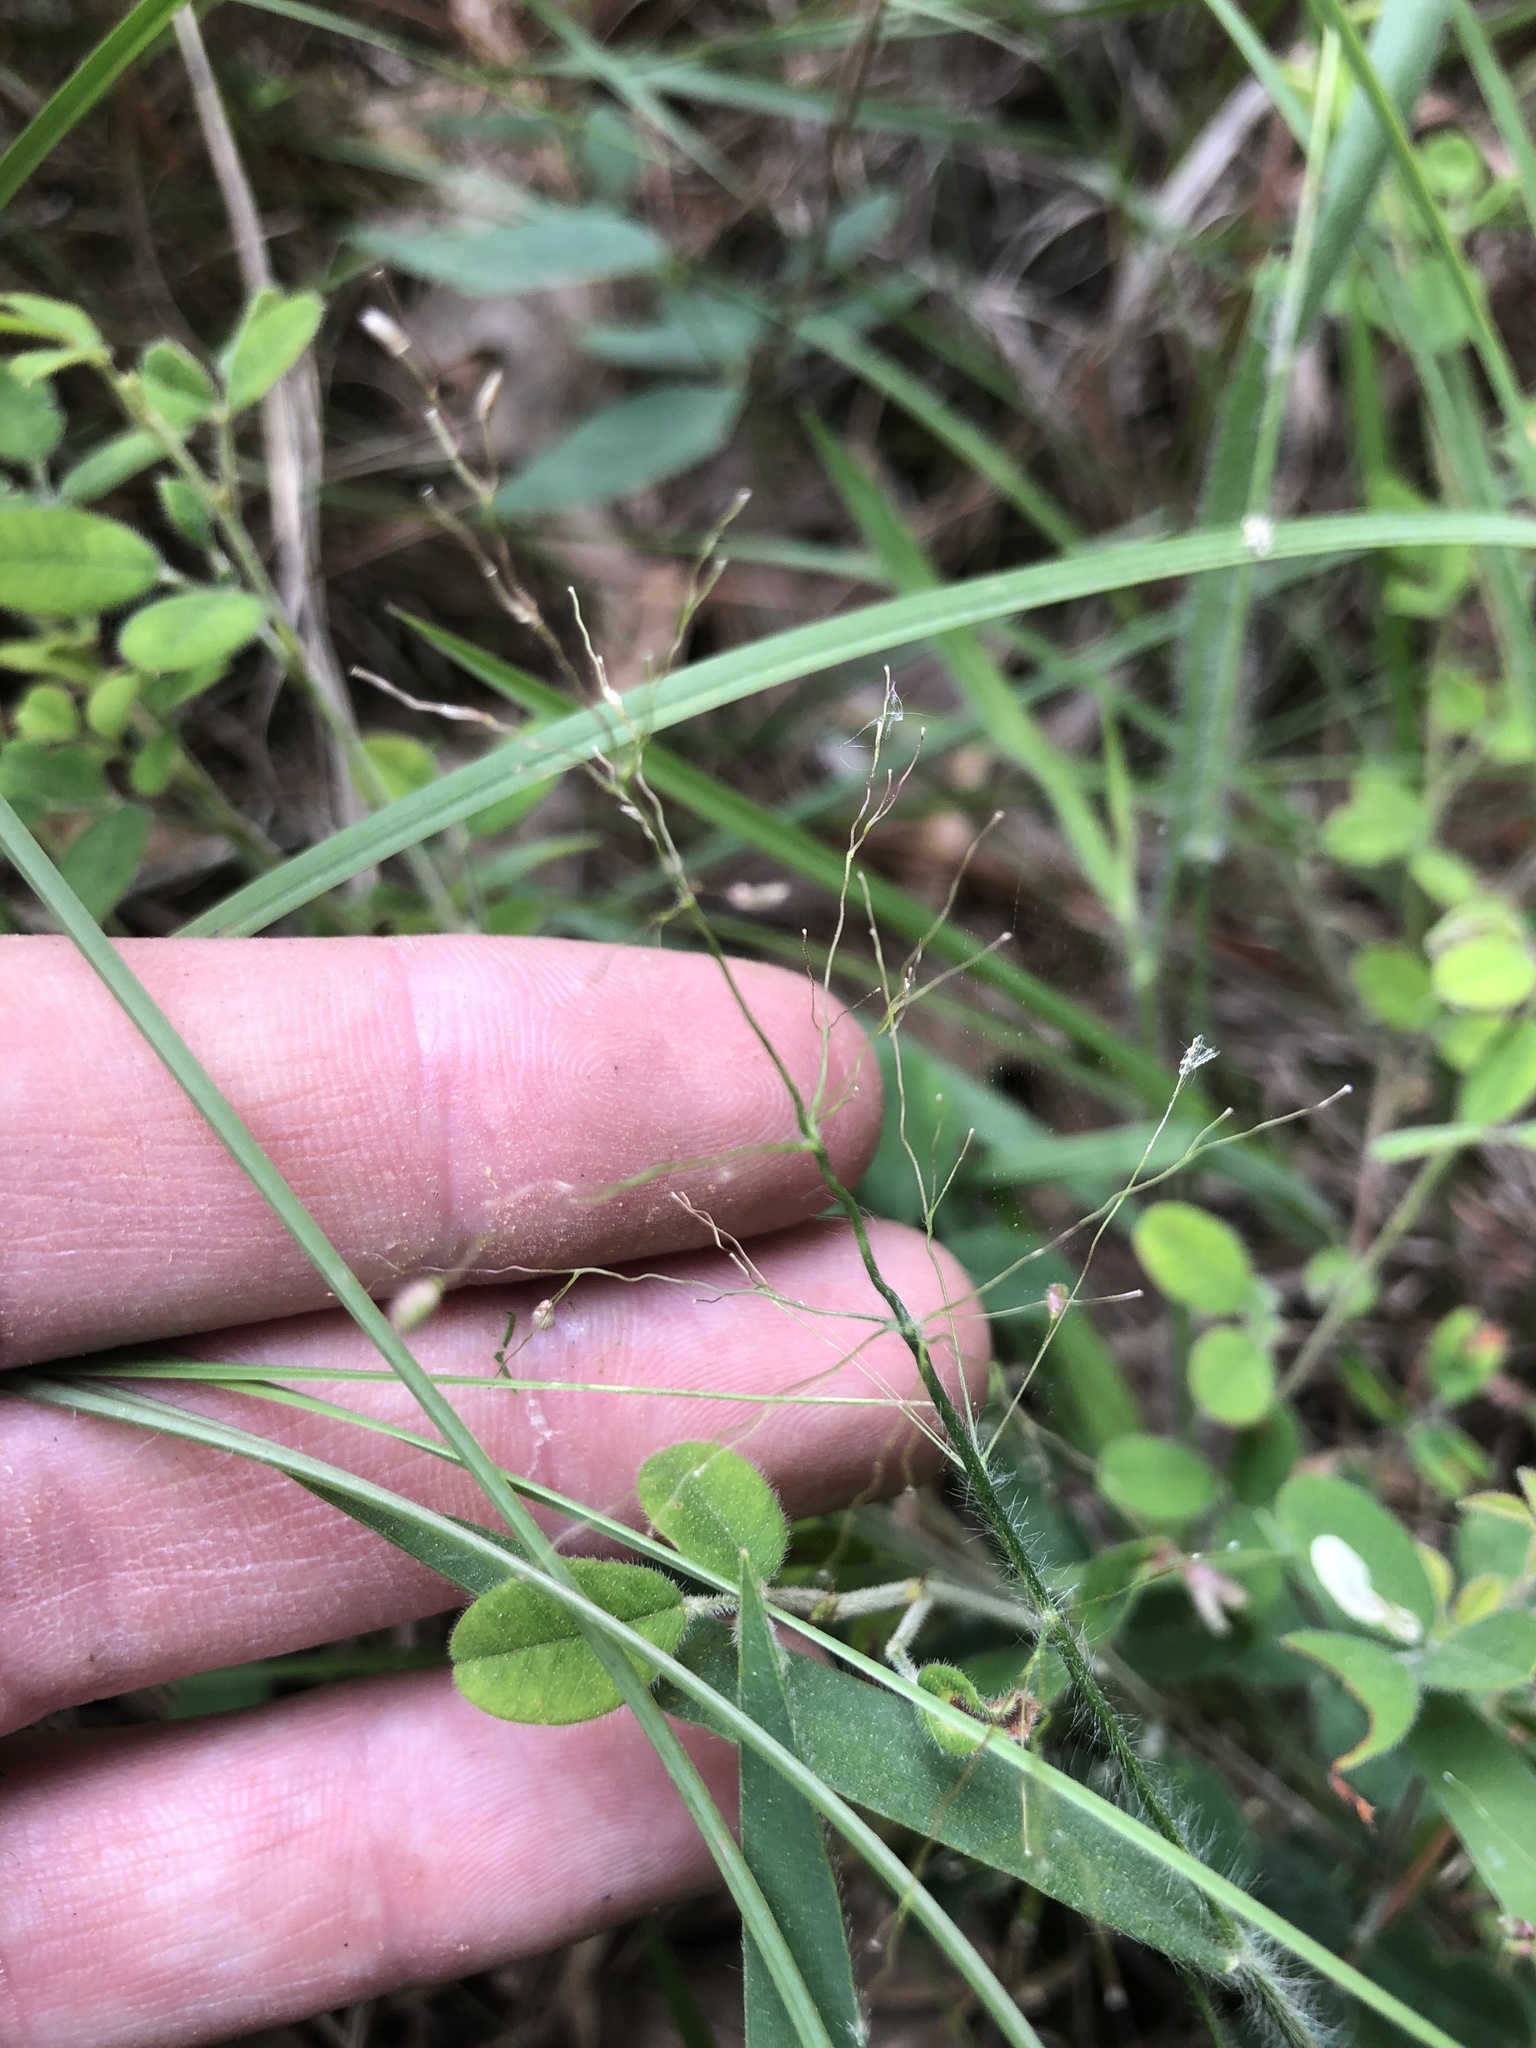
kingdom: Plantae
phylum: Tracheophyta
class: Liliopsida
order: Poales
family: Poaceae
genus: Dichanthelium
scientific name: Dichanthelium acuminatum
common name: Hairy panic grass
